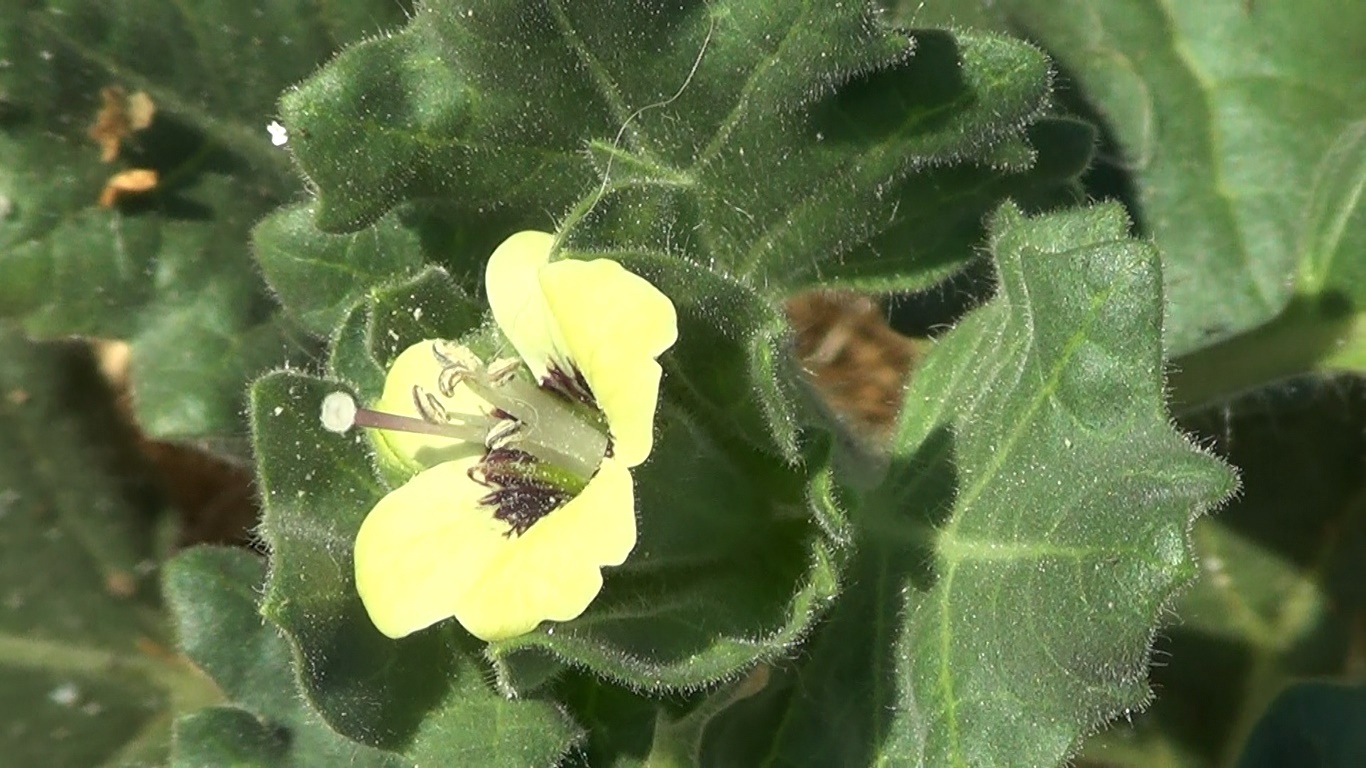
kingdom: Plantae
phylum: Tracheophyta
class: Magnoliopsida
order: Solanales
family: Solanaceae
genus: Hyoscyamus
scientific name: Hyoscyamus albus
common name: White henbane
